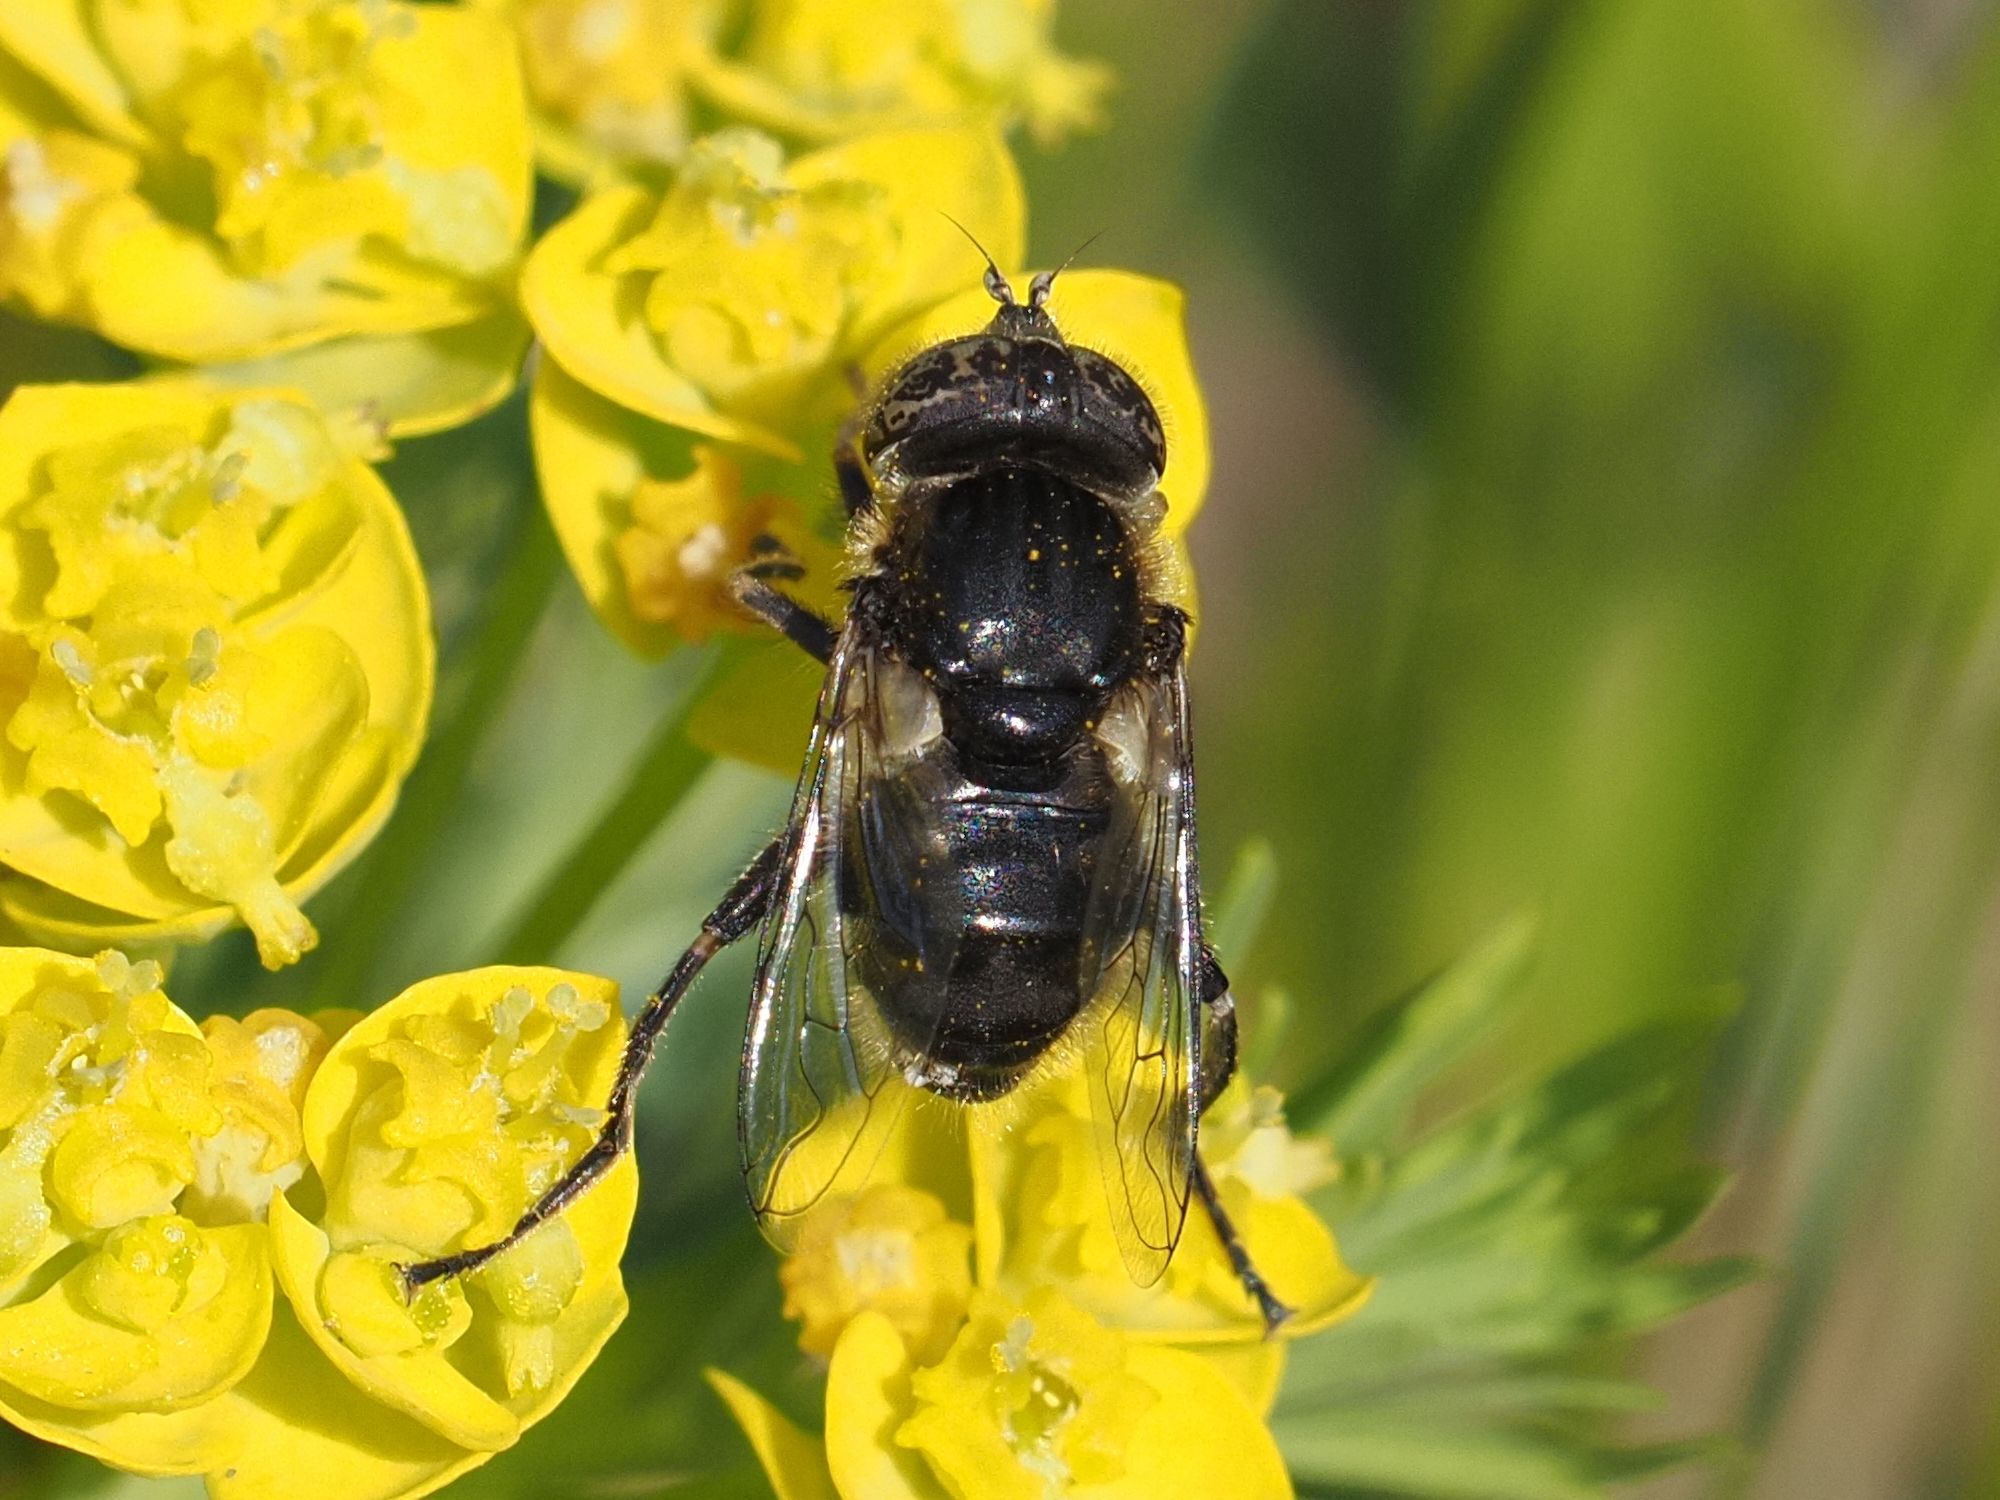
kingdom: Animalia
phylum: Arthropoda
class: Insecta
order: Diptera
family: Syrphidae
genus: Eristalinus
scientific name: Eristalinus sepulchralis
